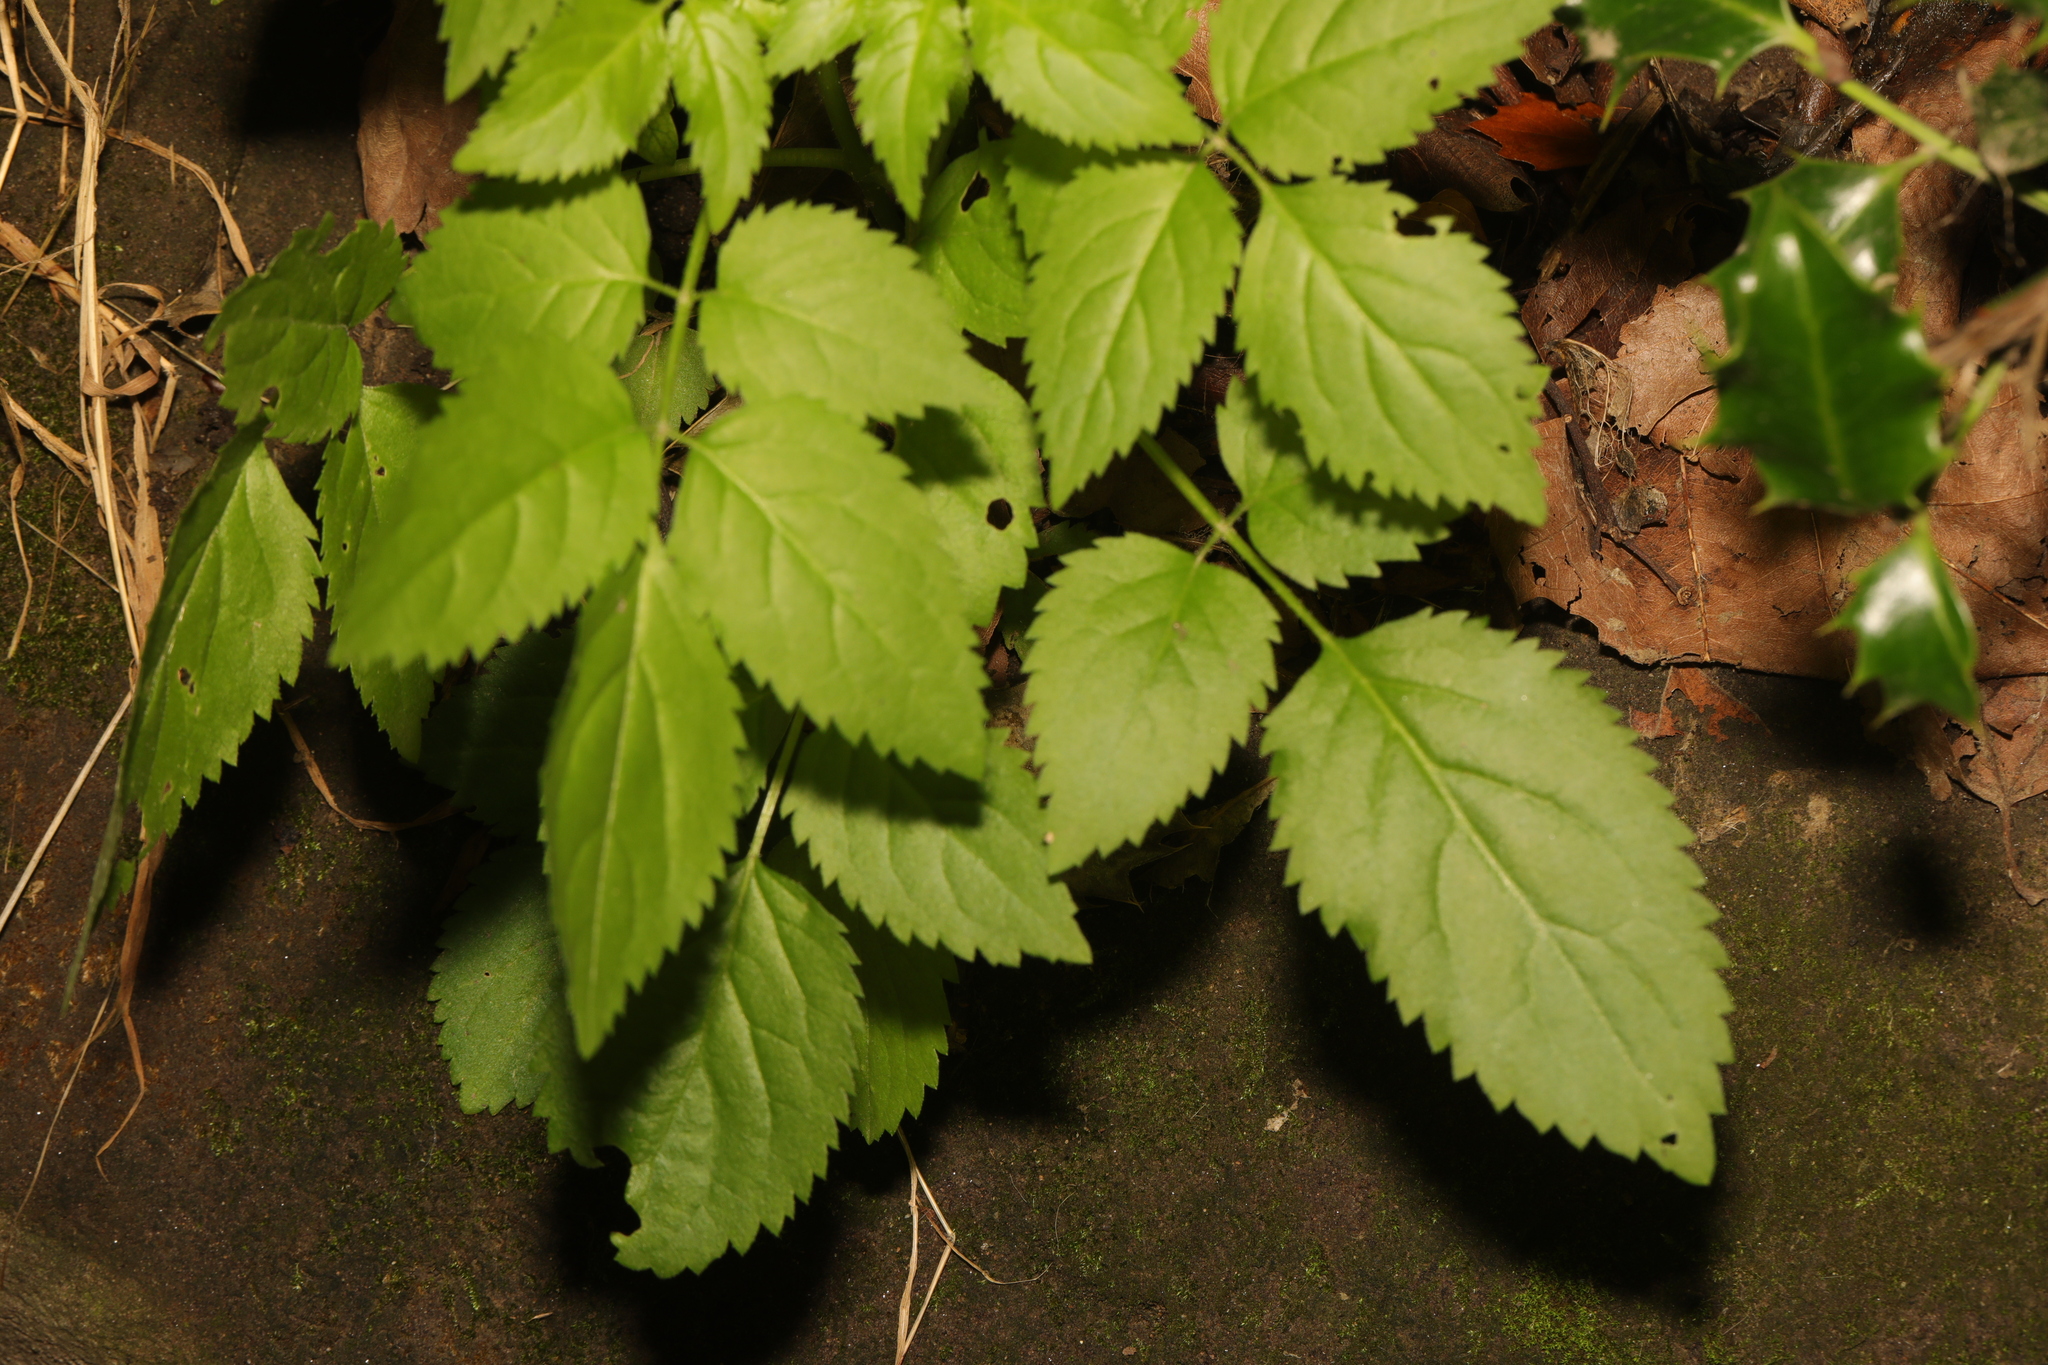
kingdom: Plantae
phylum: Tracheophyta
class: Magnoliopsida
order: Dipsacales
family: Viburnaceae
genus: Sambucus
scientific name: Sambucus nigra
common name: Elder
